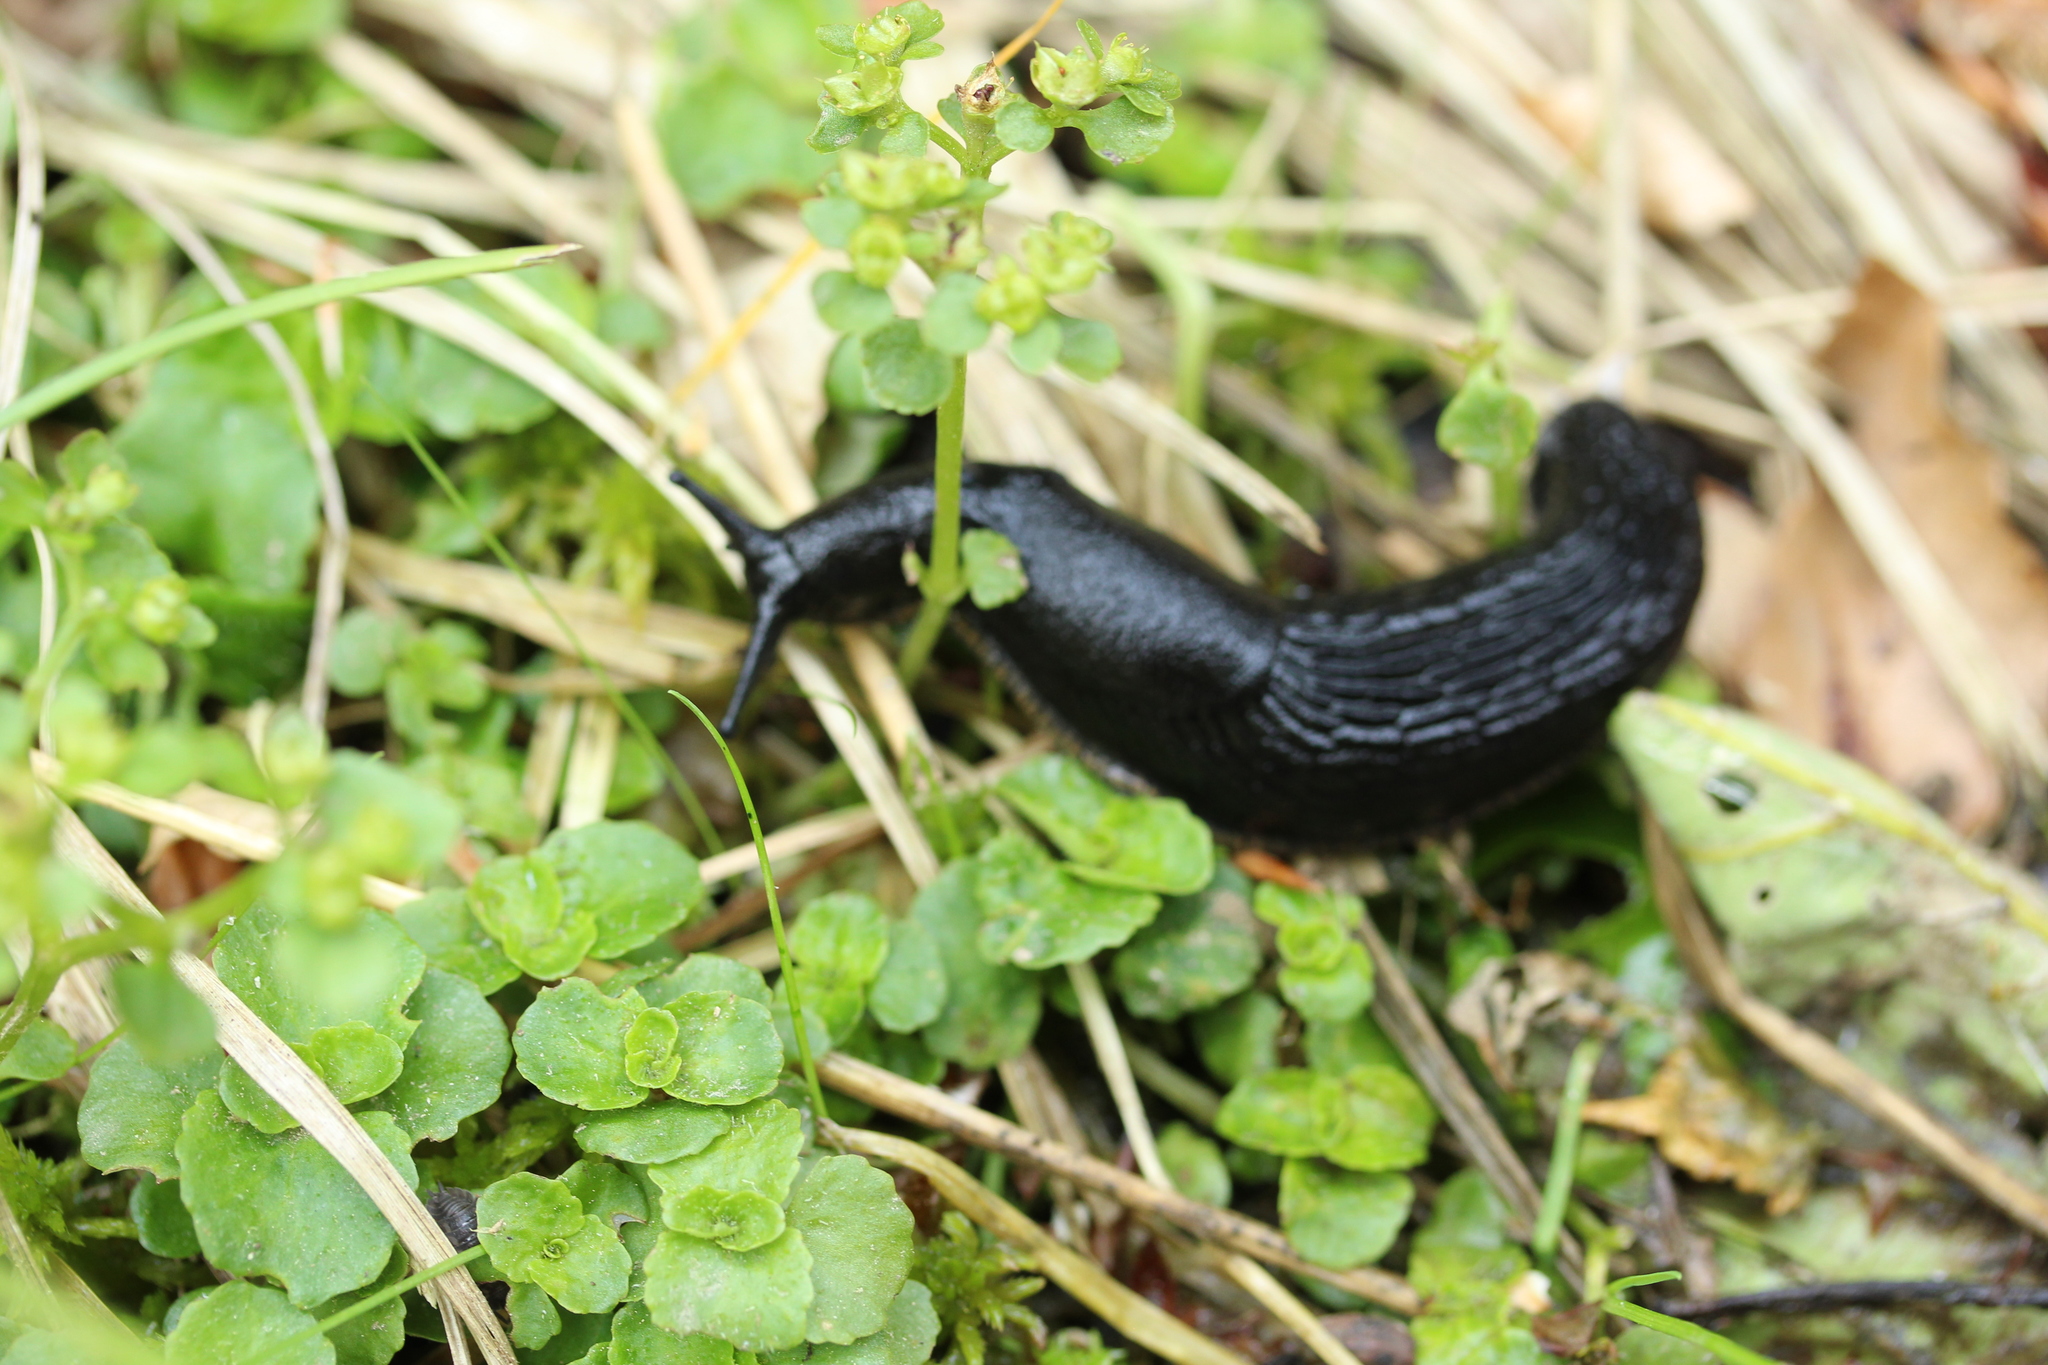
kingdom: Animalia
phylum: Mollusca
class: Gastropoda
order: Stylommatophora
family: Arionidae
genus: Arion
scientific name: Arion ater
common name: Black arion
